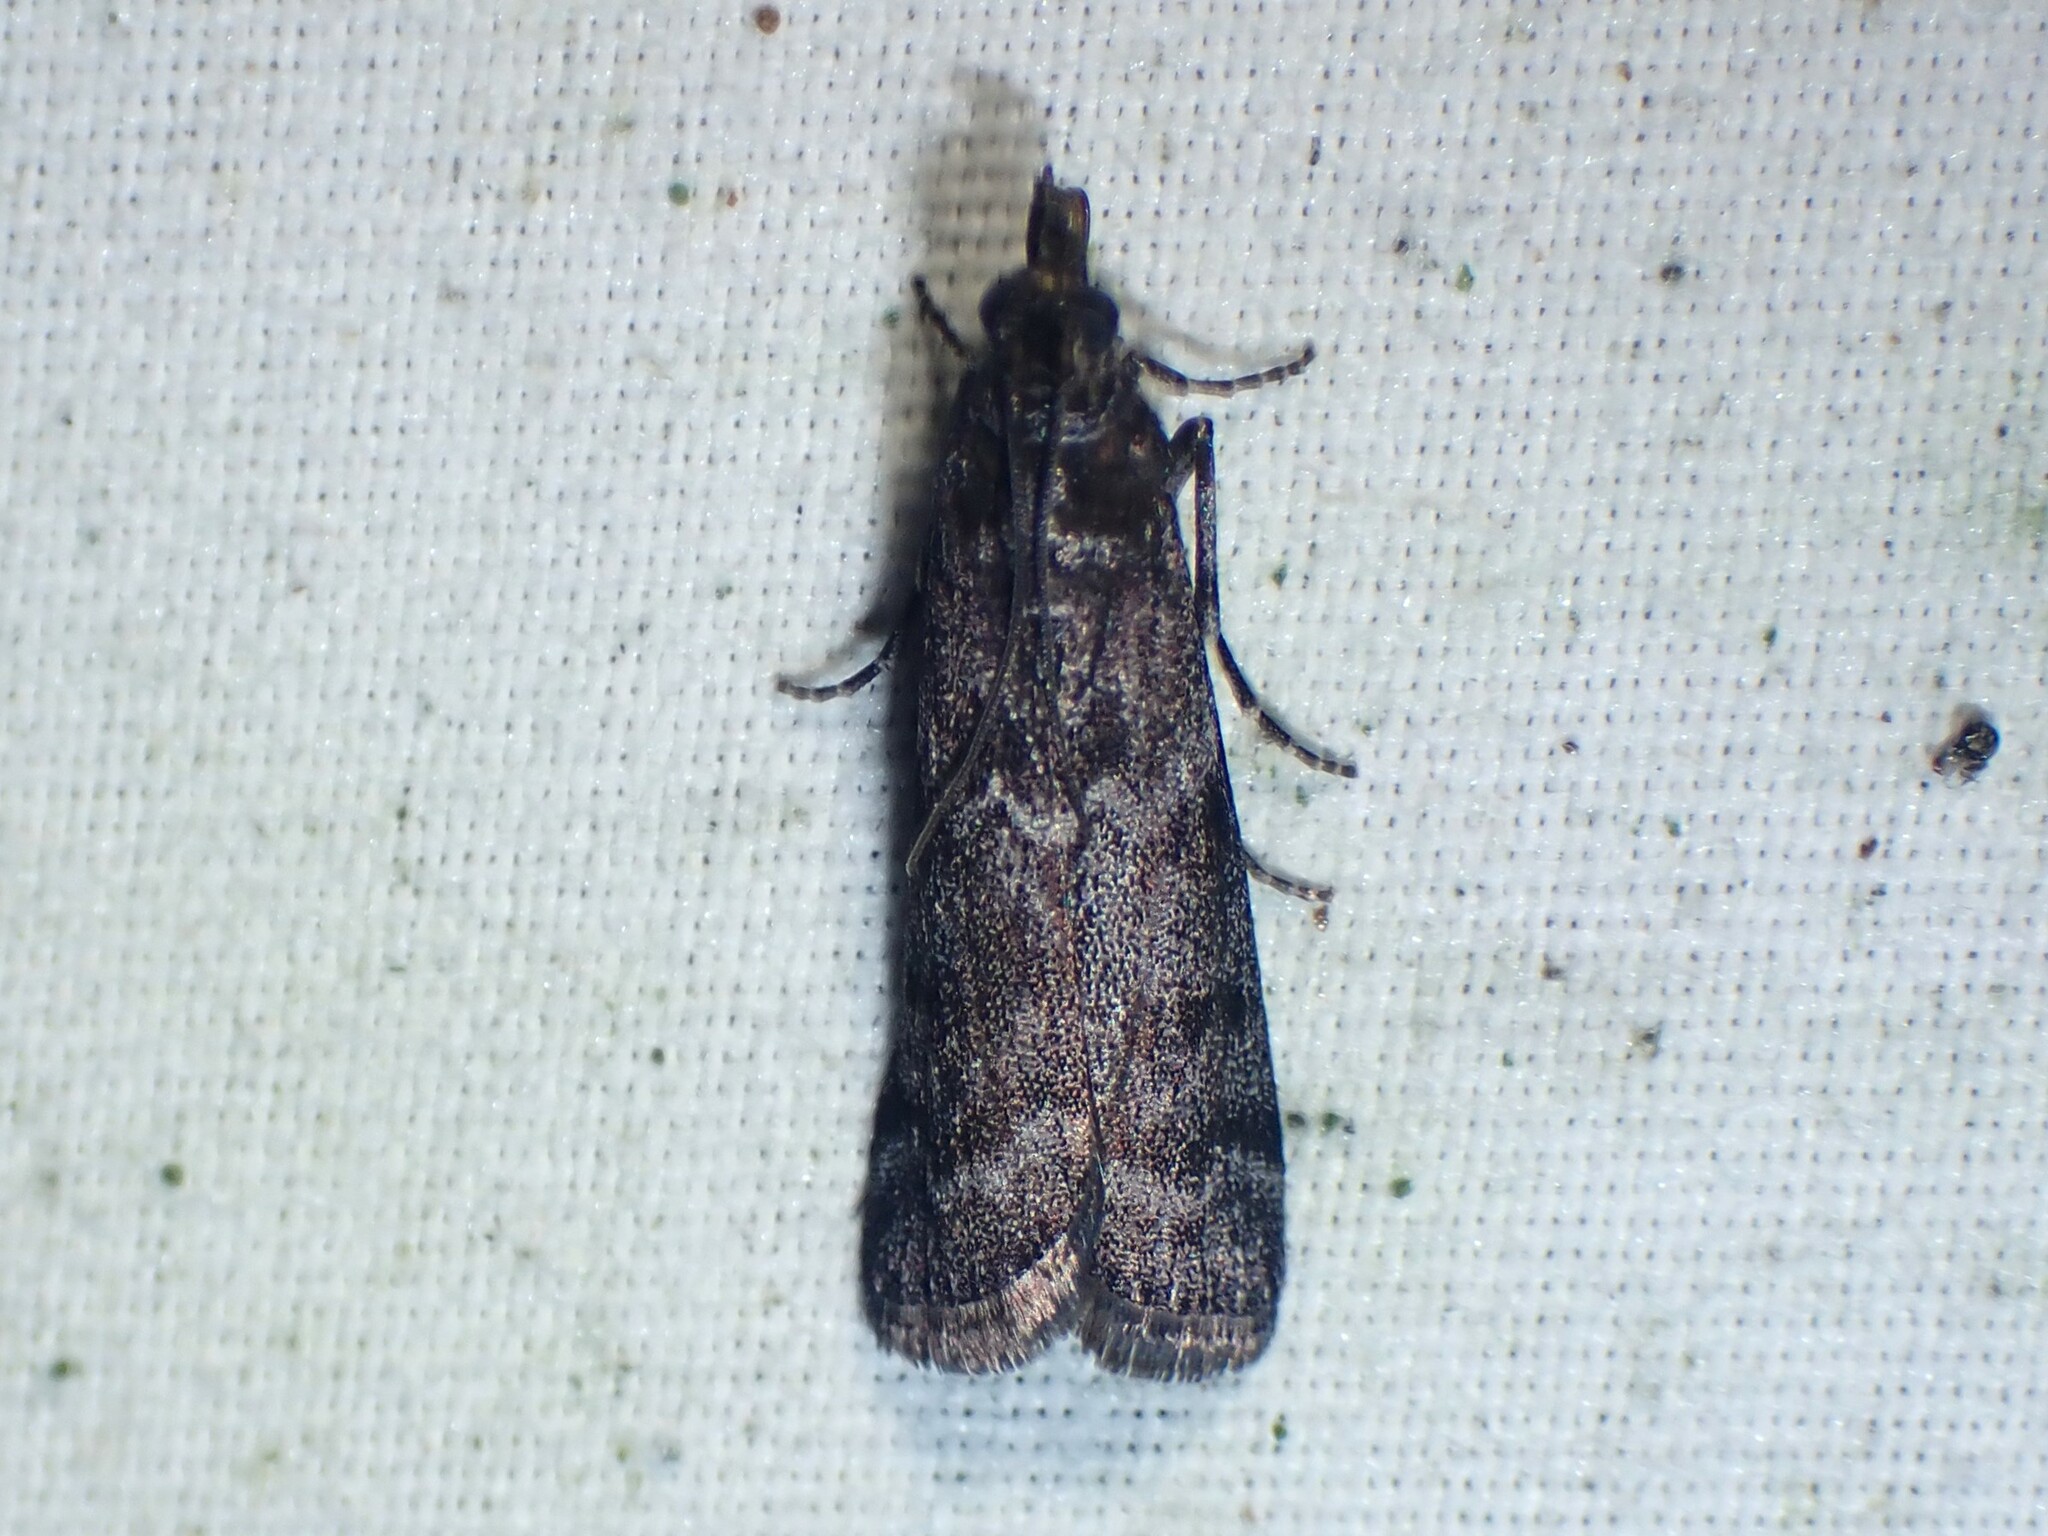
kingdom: Animalia
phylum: Arthropoda
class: Insecta
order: Lepidoptera
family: Pyralidae
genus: Pyla
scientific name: Pyla fusca
